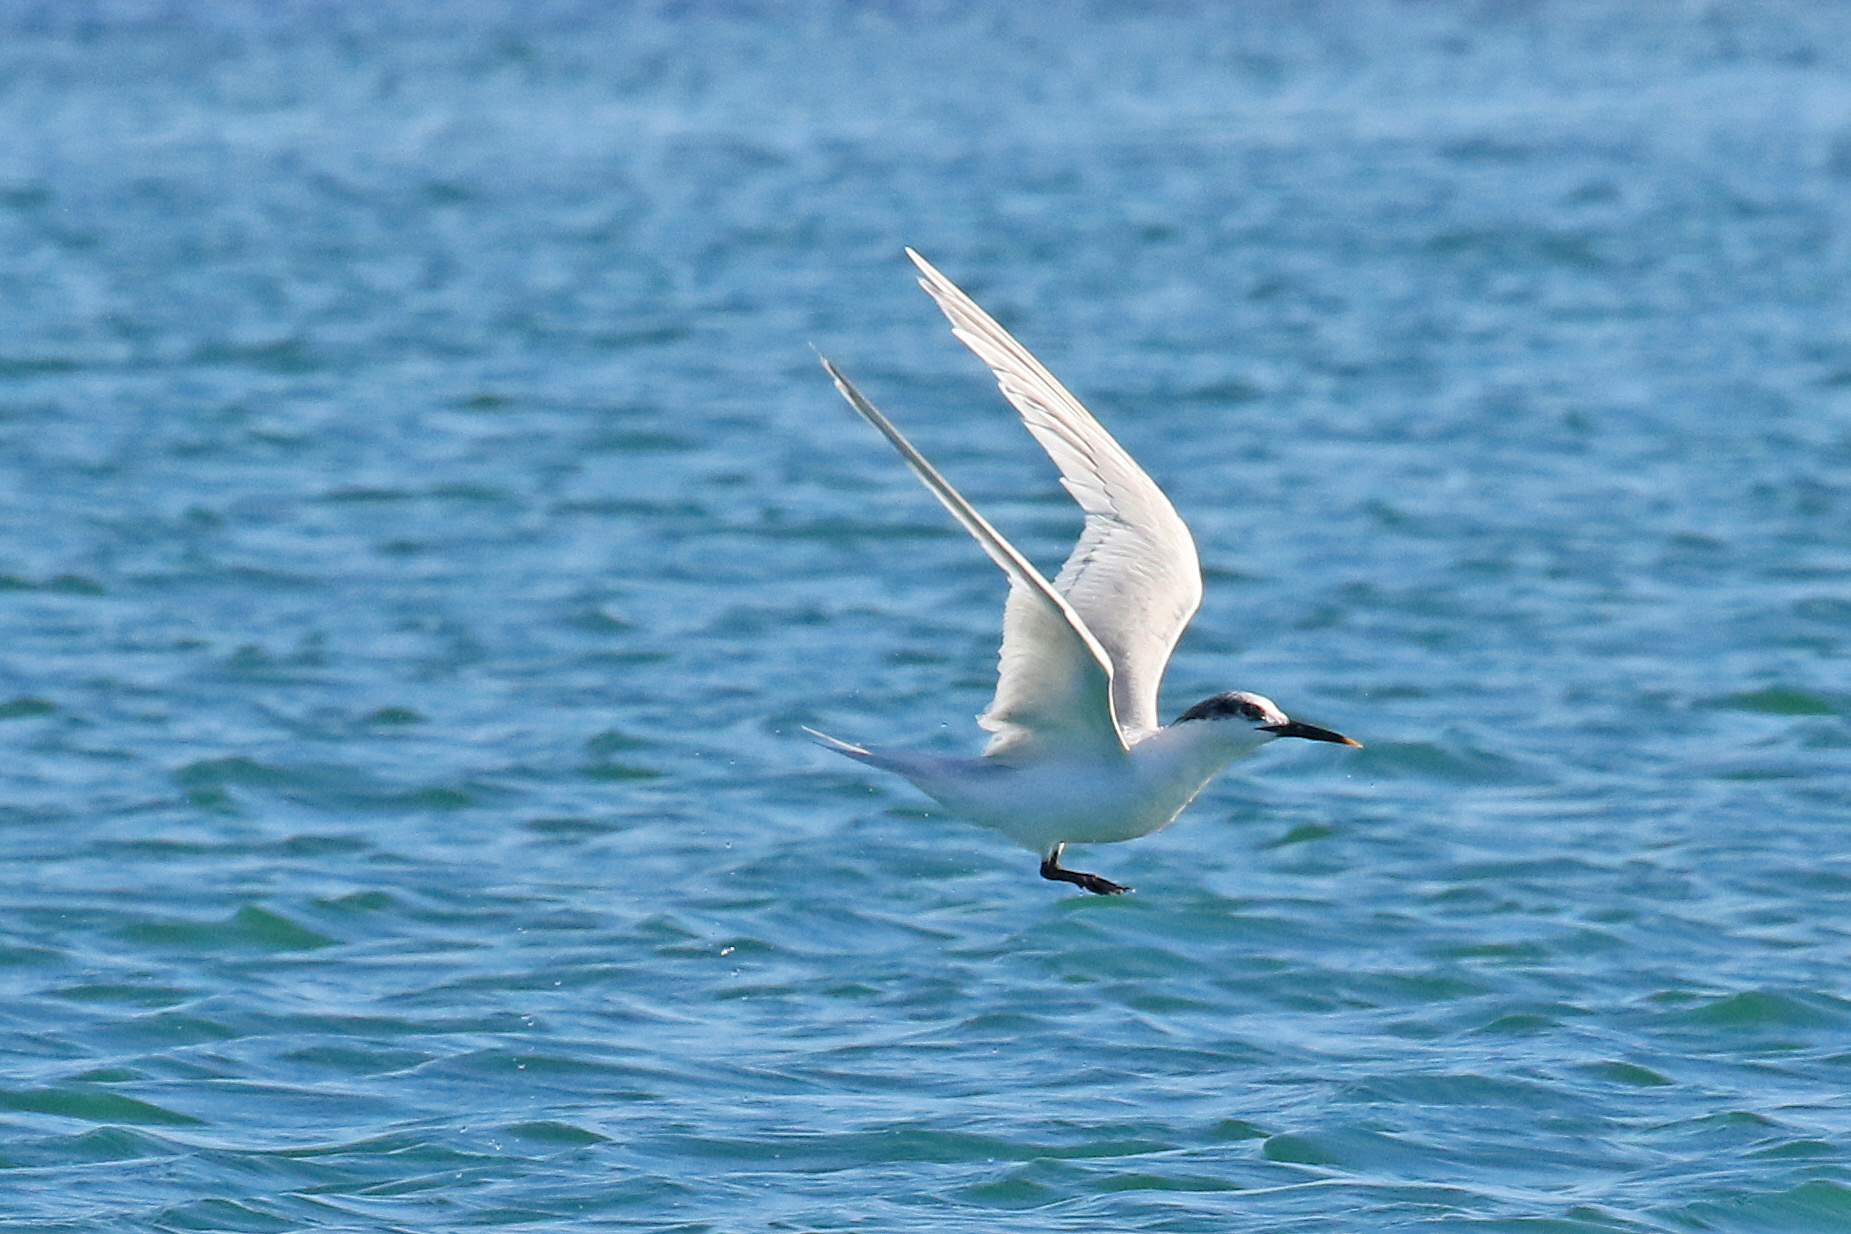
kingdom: Animalia
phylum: Chordata
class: Aves
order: Charadriiformes
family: Laridae
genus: Thalasseus
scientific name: Thalasseus sandvicensis
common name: Sandwich tern
